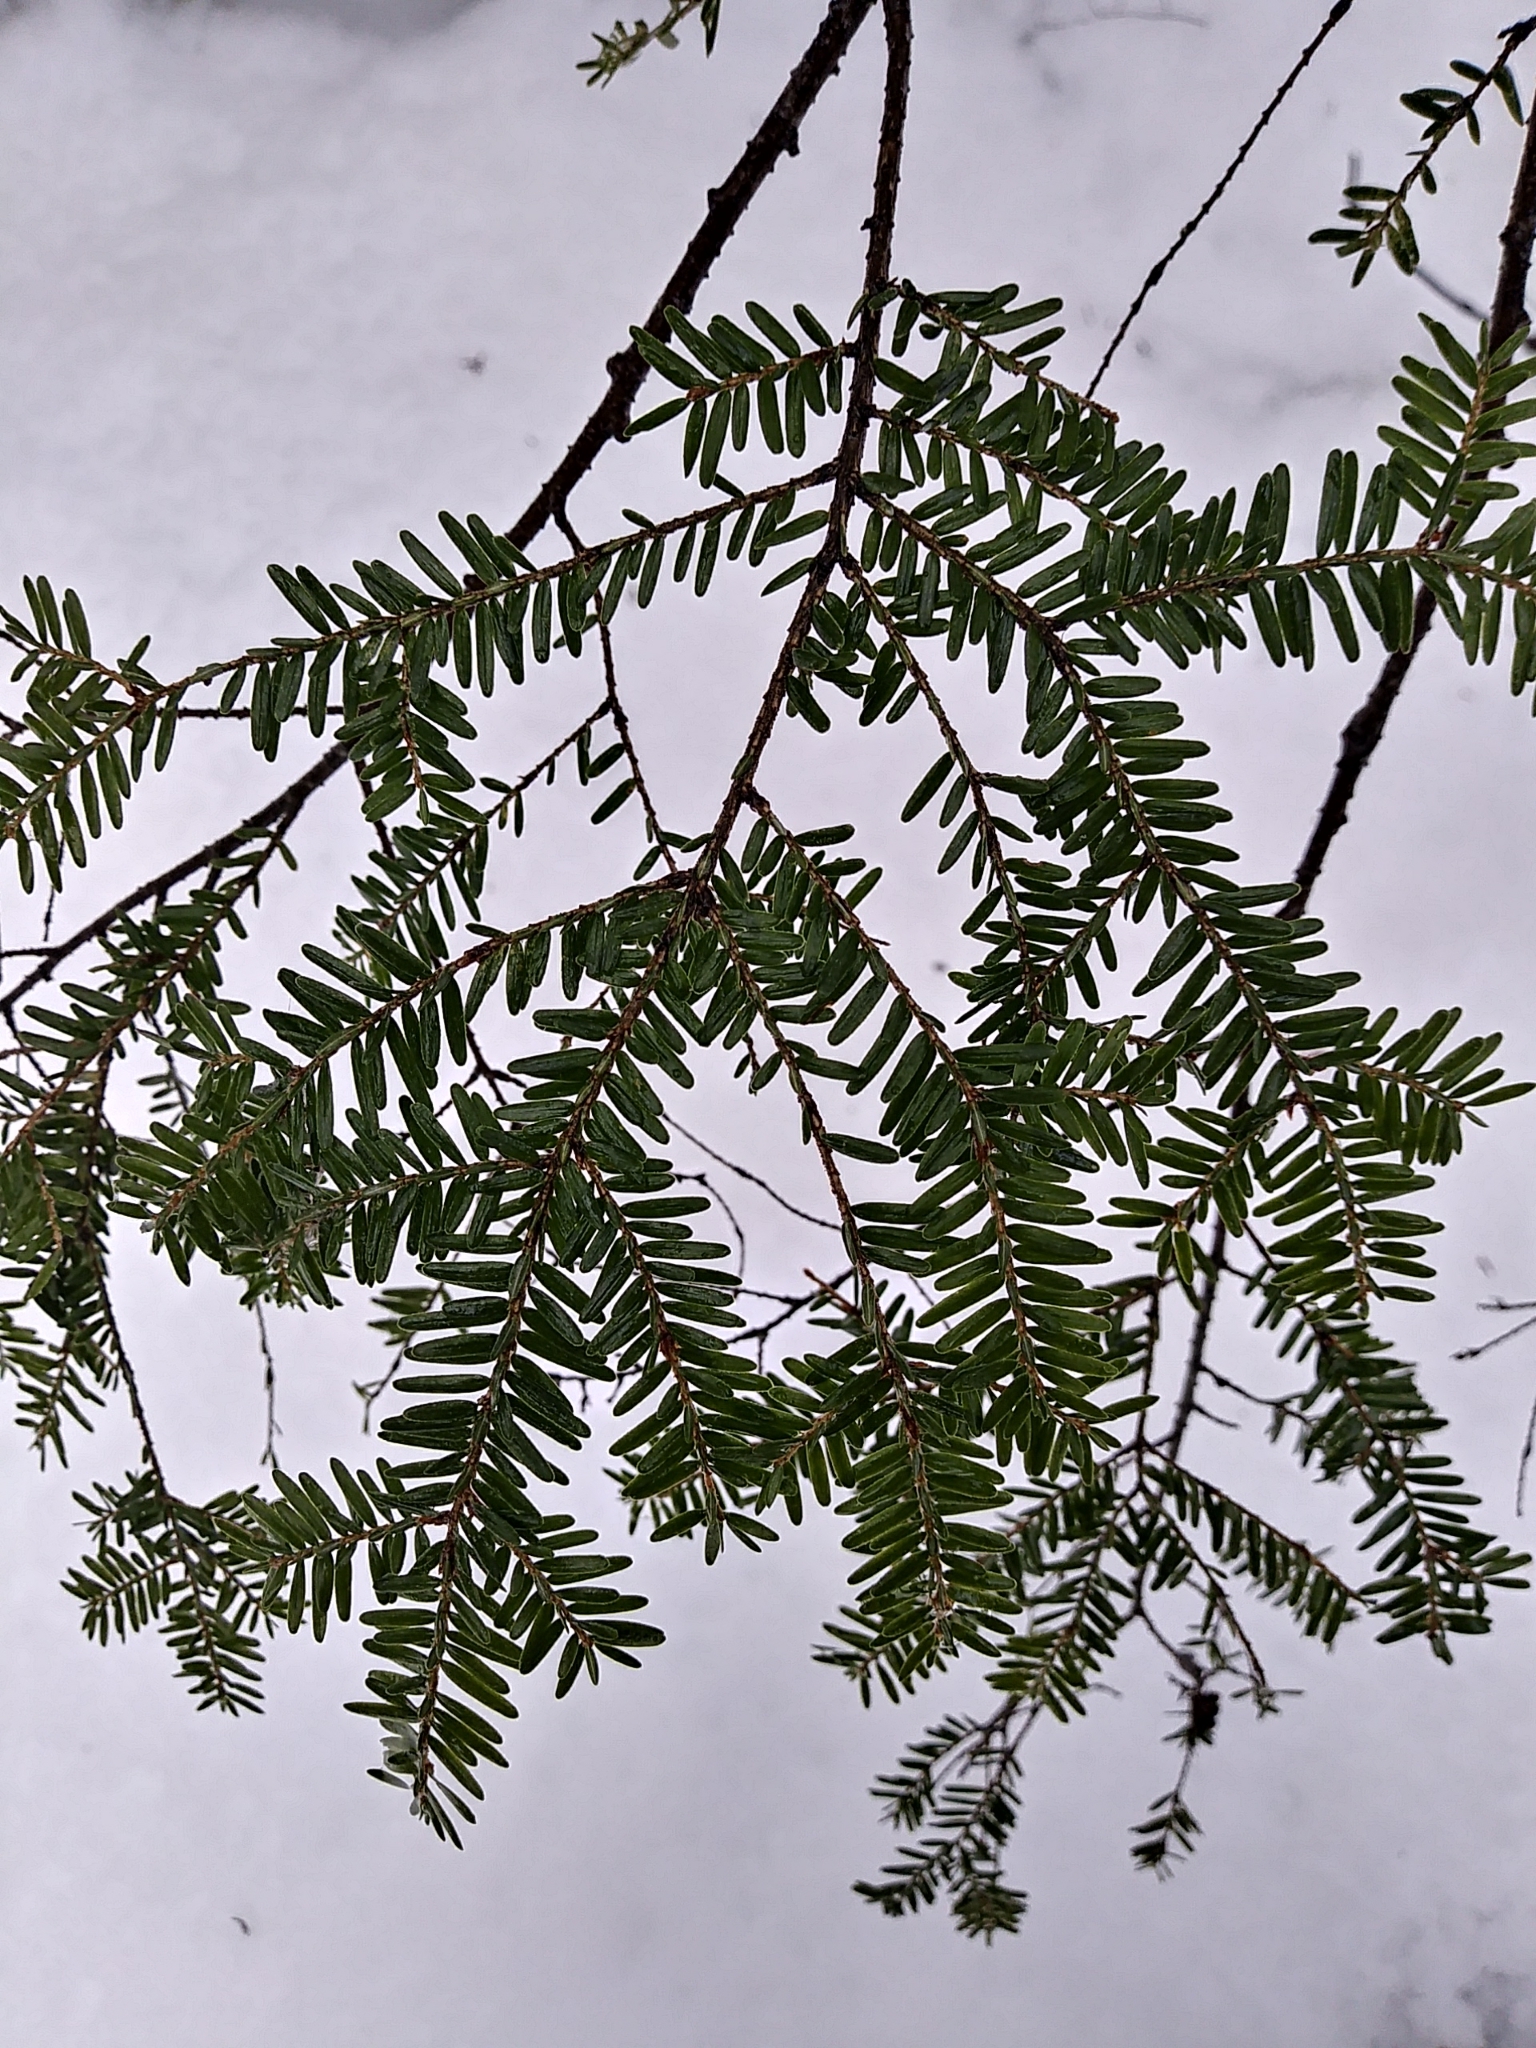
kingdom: Plantae
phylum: Tracheophyta
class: Pinopsida
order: Pinales
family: Pinaceae
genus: Tsuga
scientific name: Tsuga canadensis
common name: Eastern hemlock
